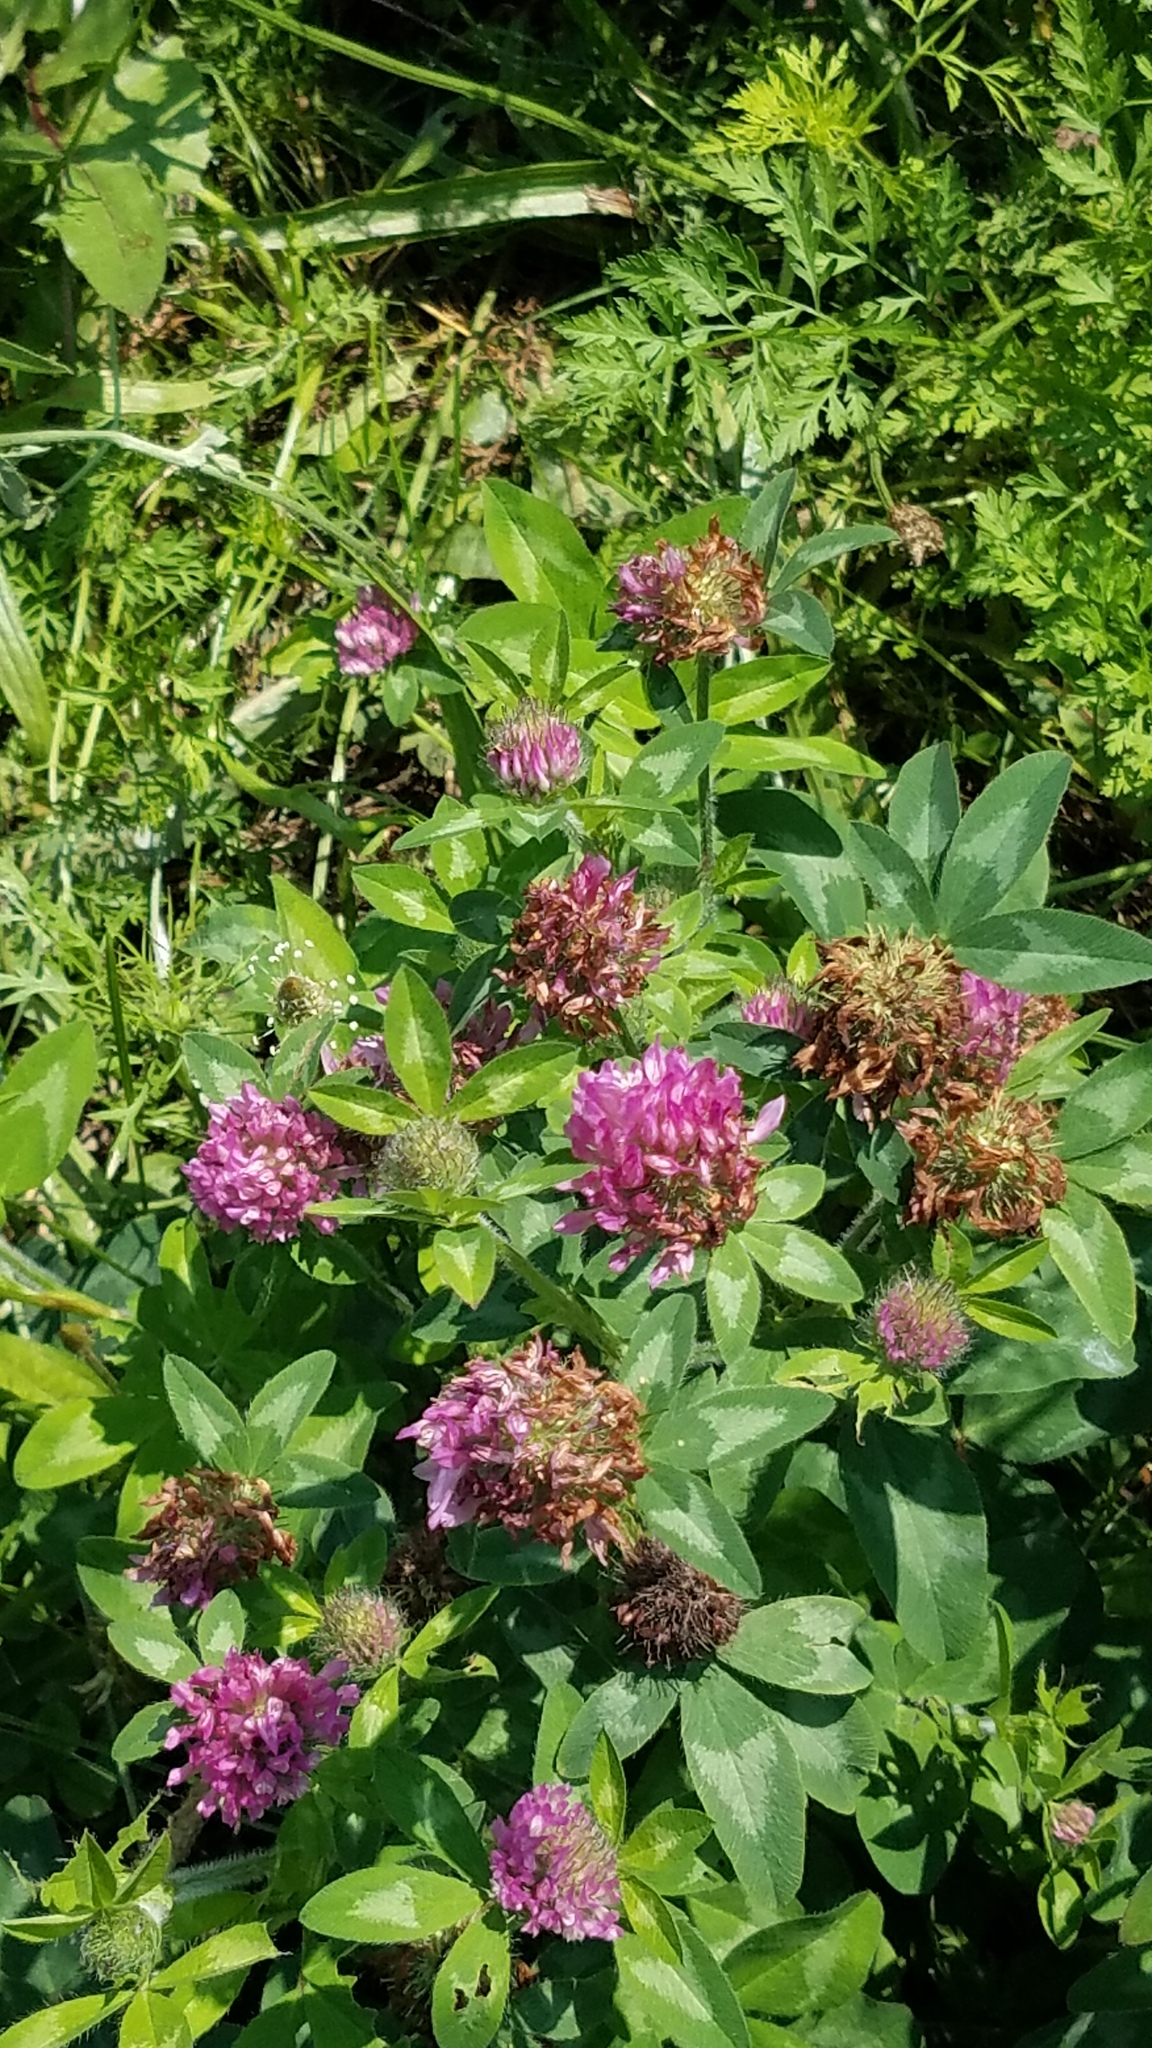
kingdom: Plantae
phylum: Tracheophyta
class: Magnoliopsida
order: Fabales
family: Fabaceae
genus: Trifolium
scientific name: Trifolium pratense
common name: Red clover
